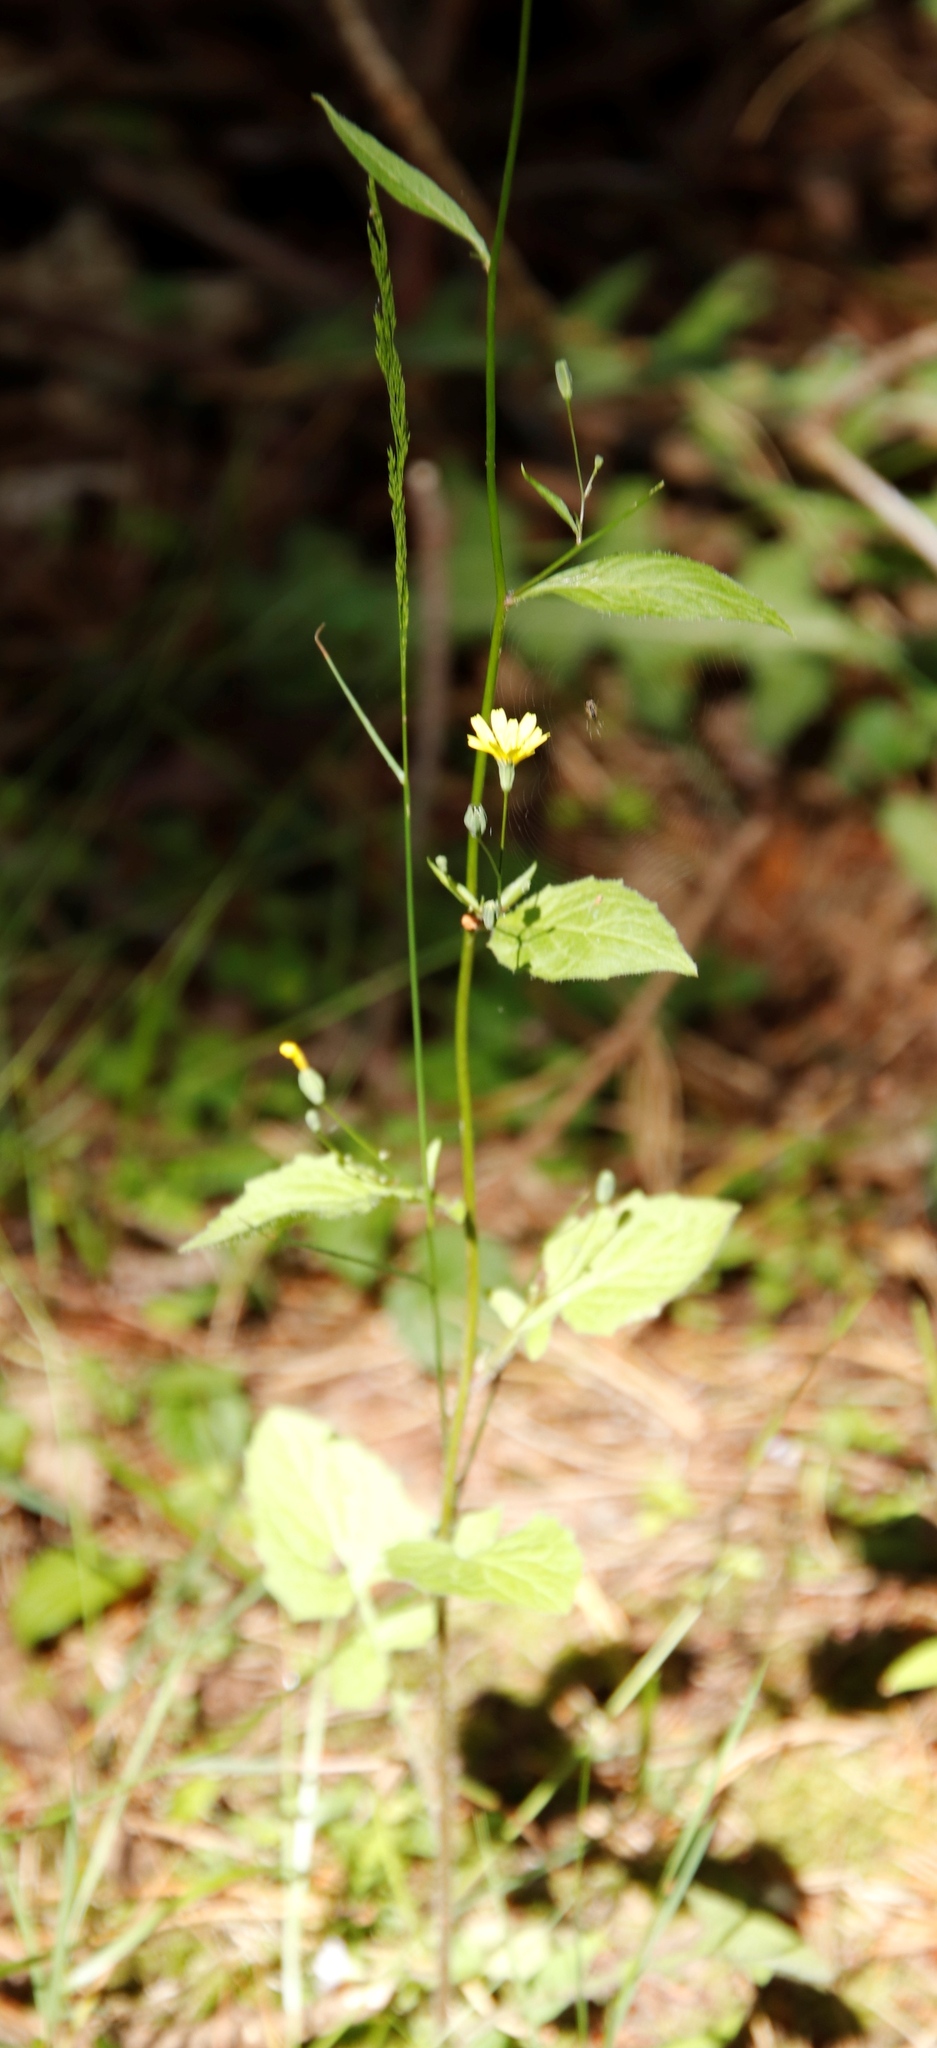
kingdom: Plantae
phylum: Tracheophyta
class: Magnoliopsida
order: Asterales
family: Asteraceae
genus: Lapsana
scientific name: Lapsana communis
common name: Nipplewort
